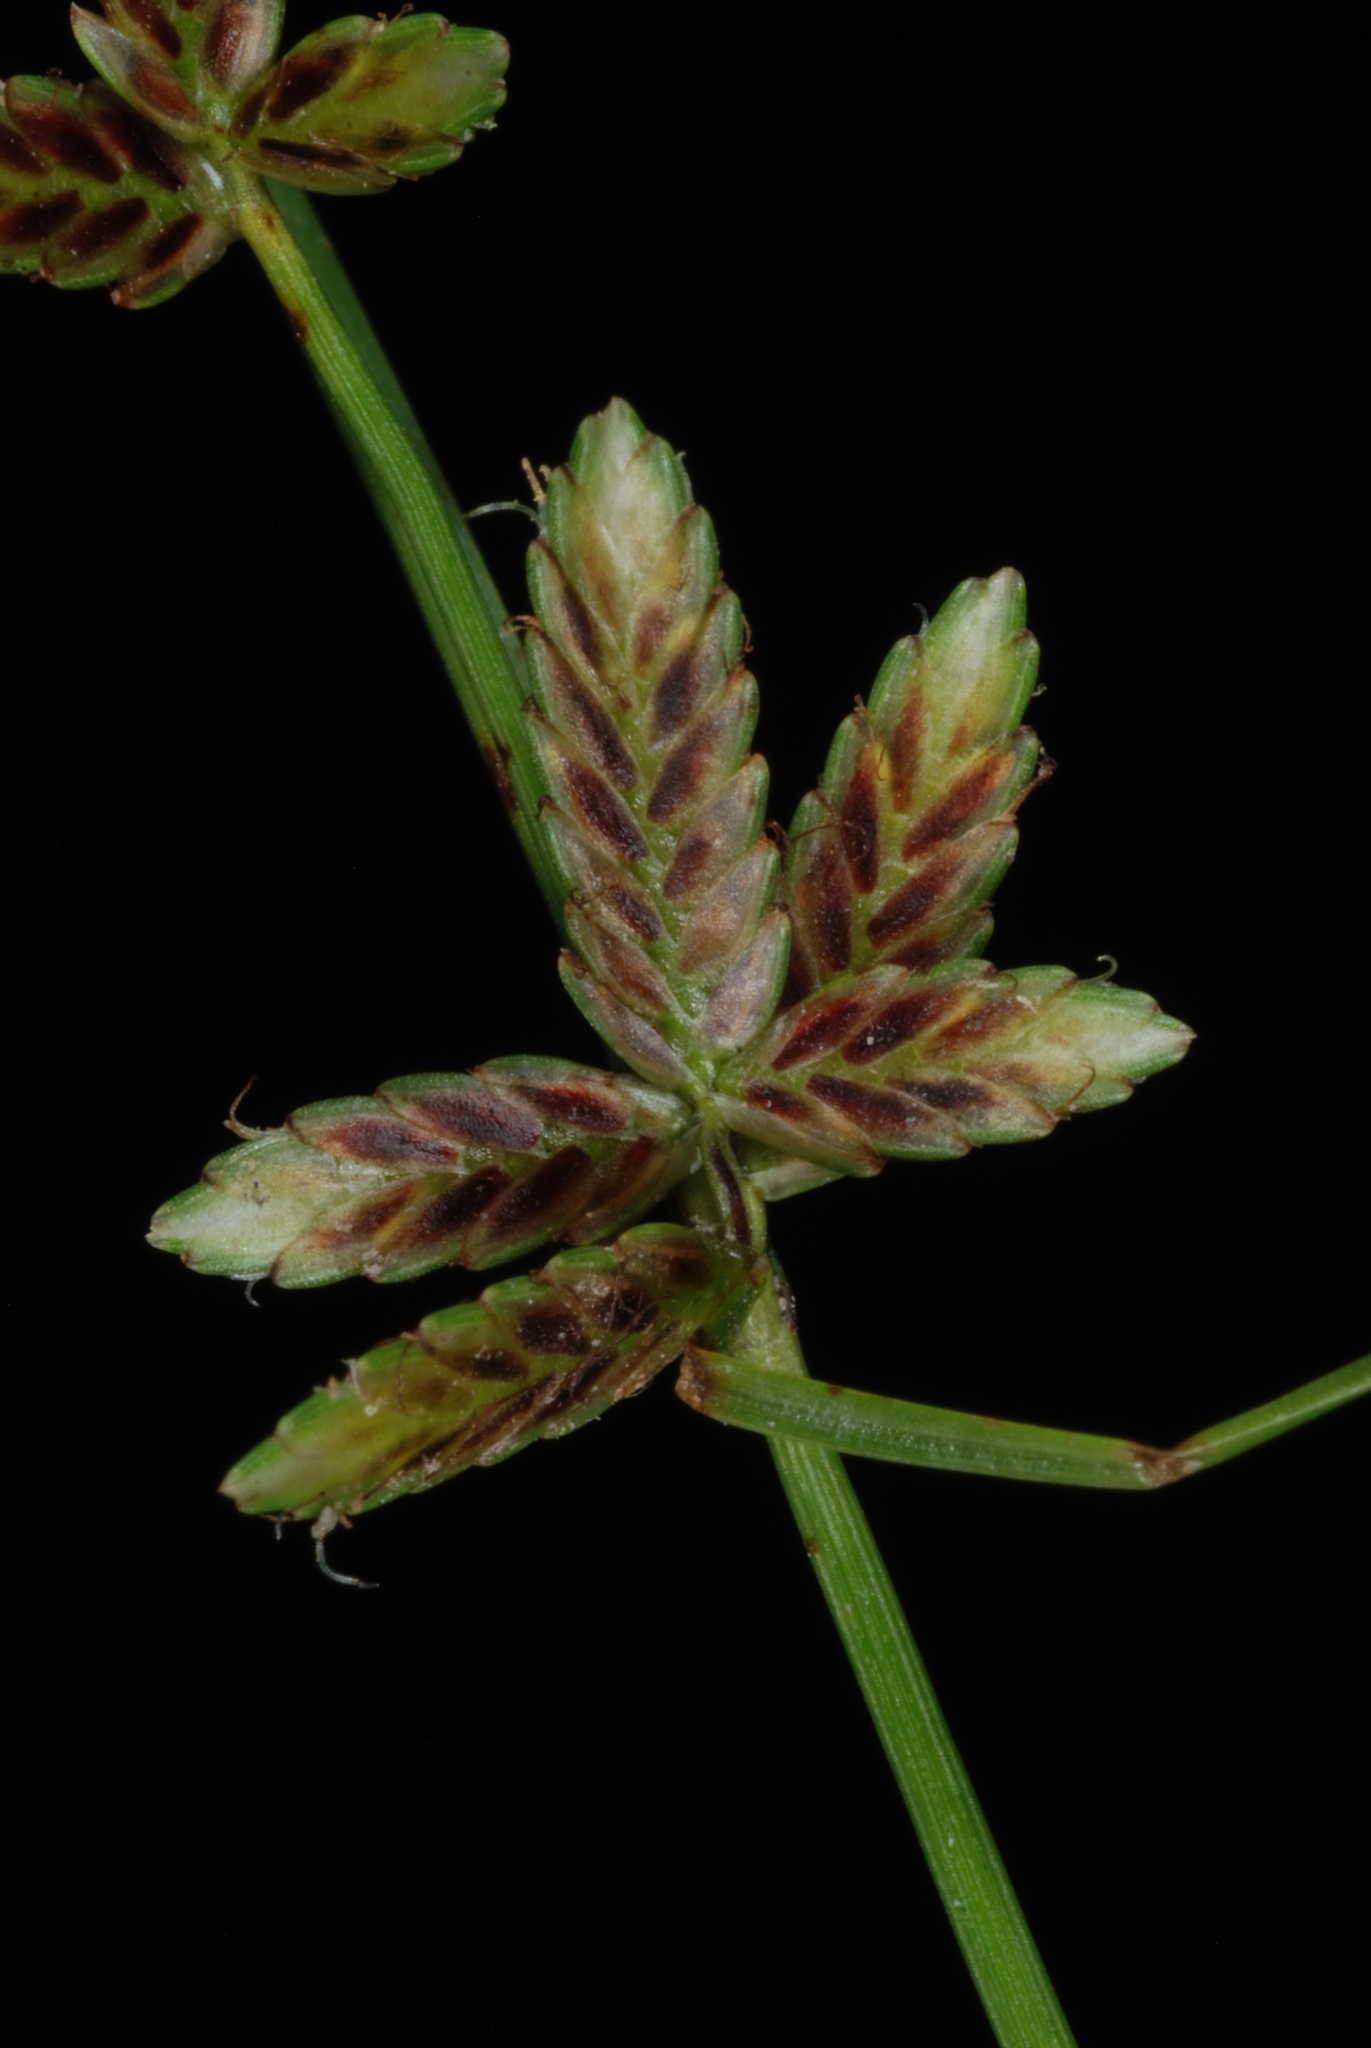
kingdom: Plantae
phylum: Tracheophyta
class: Liliopsida
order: Poales
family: Cyperaceae
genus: Cyperus
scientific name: Cyperus bipartitus
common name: Brook flatsedge
